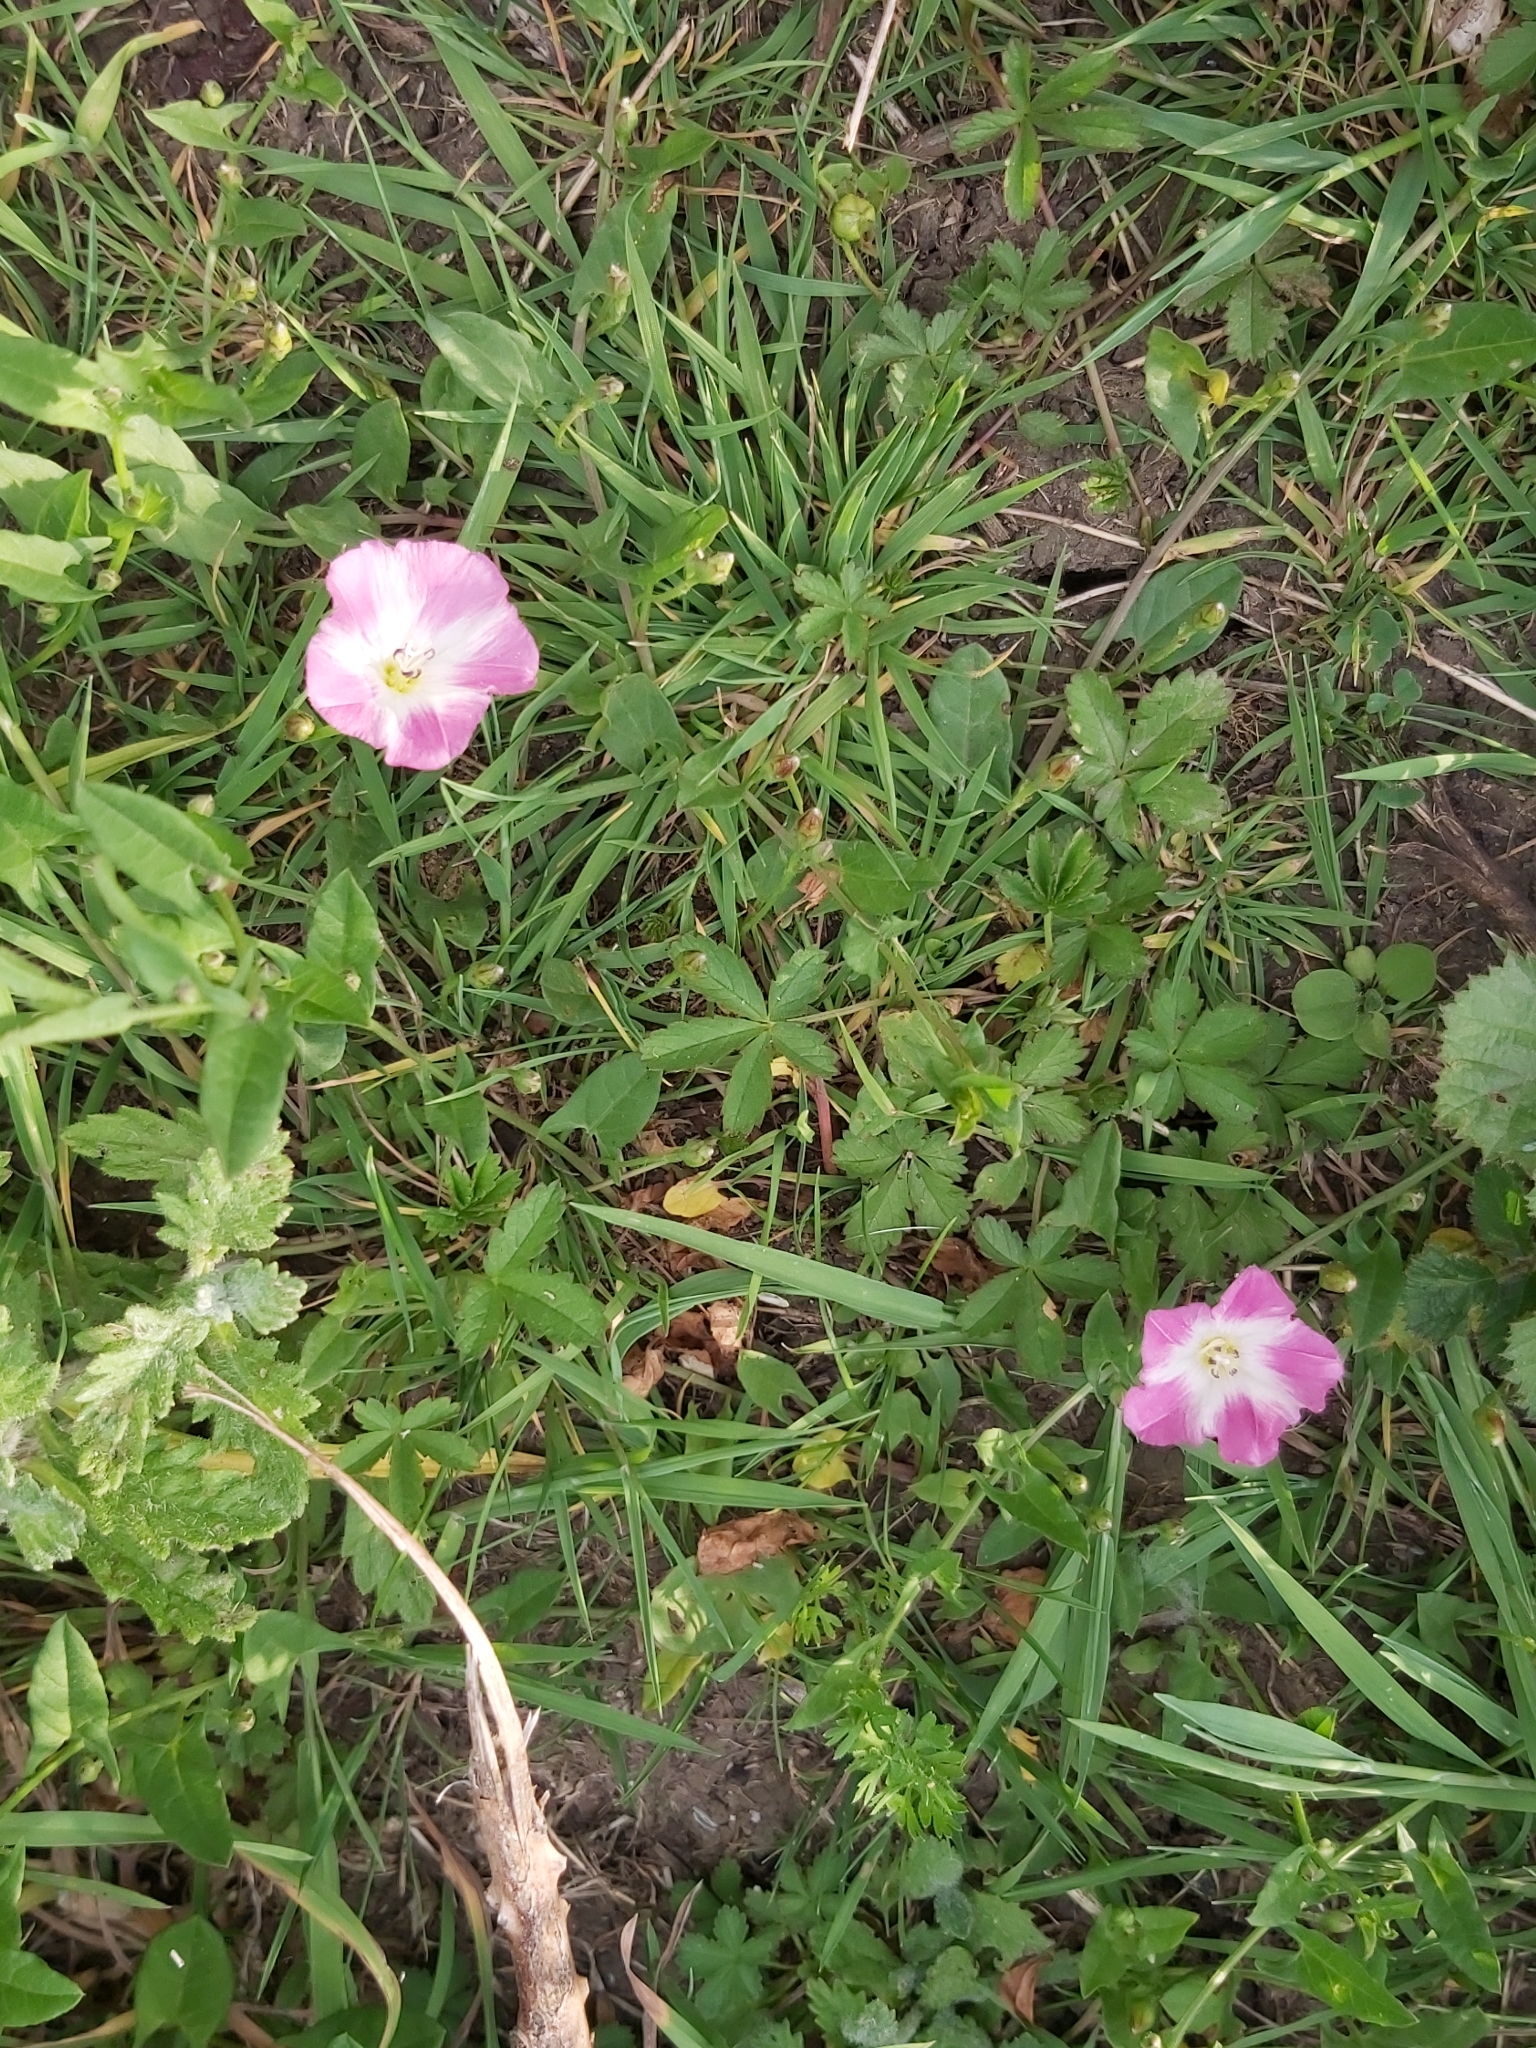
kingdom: Plantae
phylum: Tracheophyta
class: Magnoliopsida
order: Solanales
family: Convolvulaceae
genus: Convolvulus
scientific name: Convolvulus arvensis
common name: Field bindweed
